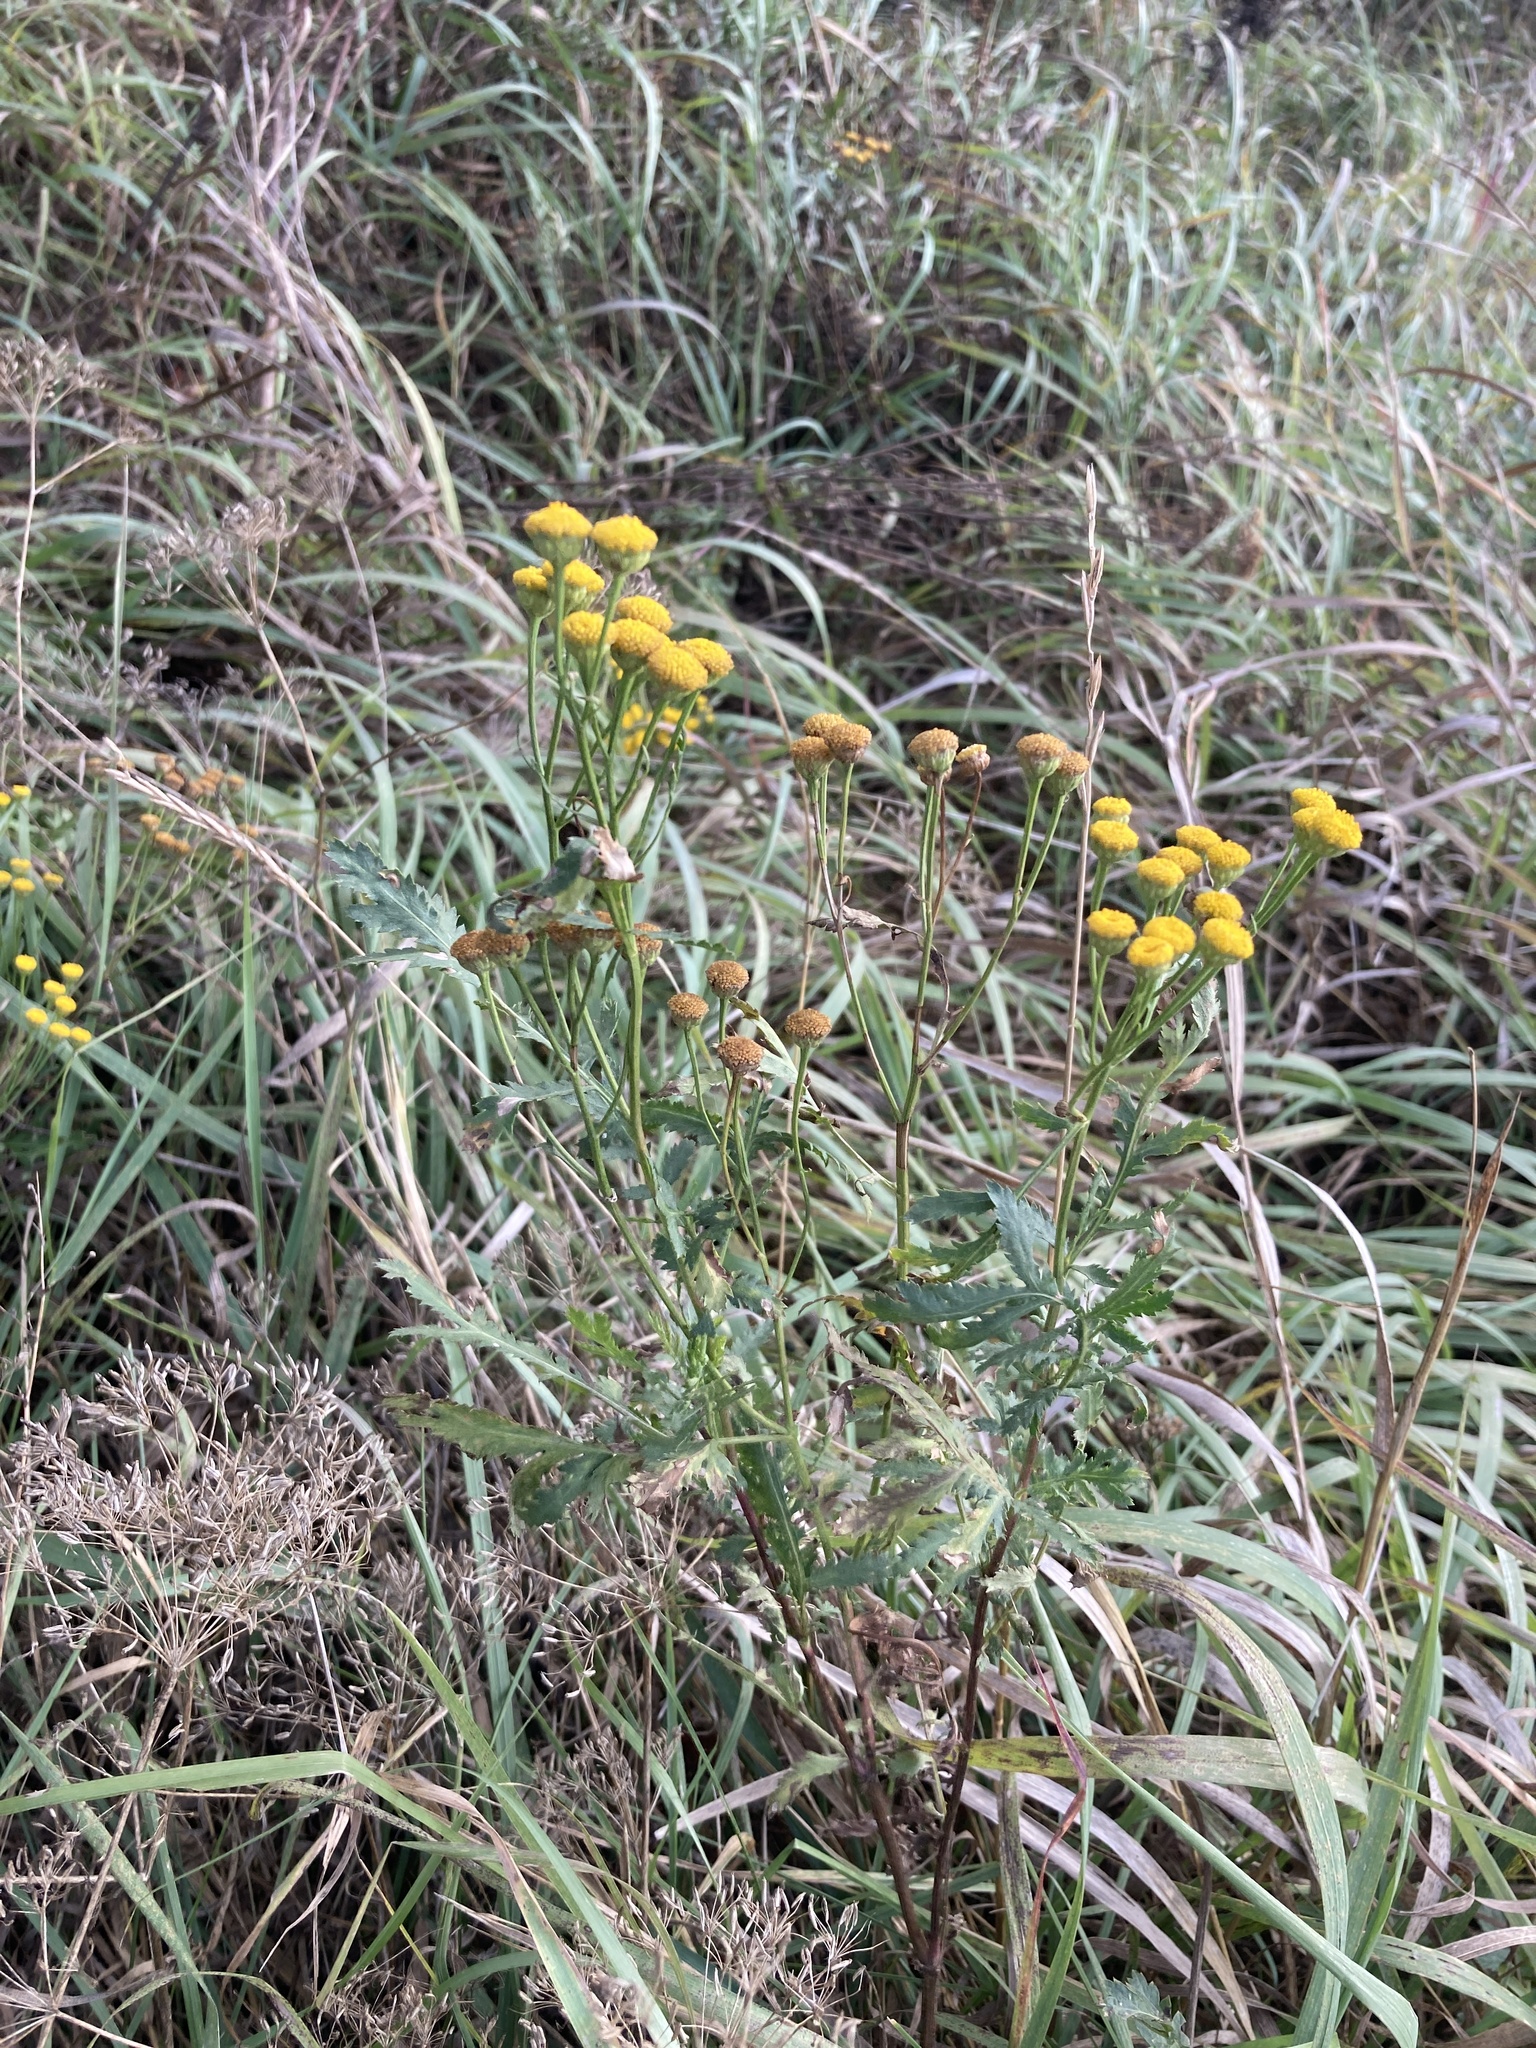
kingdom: Plantae
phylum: Tracheophyta
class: Magnoliopsida
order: Asterales
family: Asteraceae
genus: Tanacetum
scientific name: Tanacetum vulgare
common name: Common tansy
